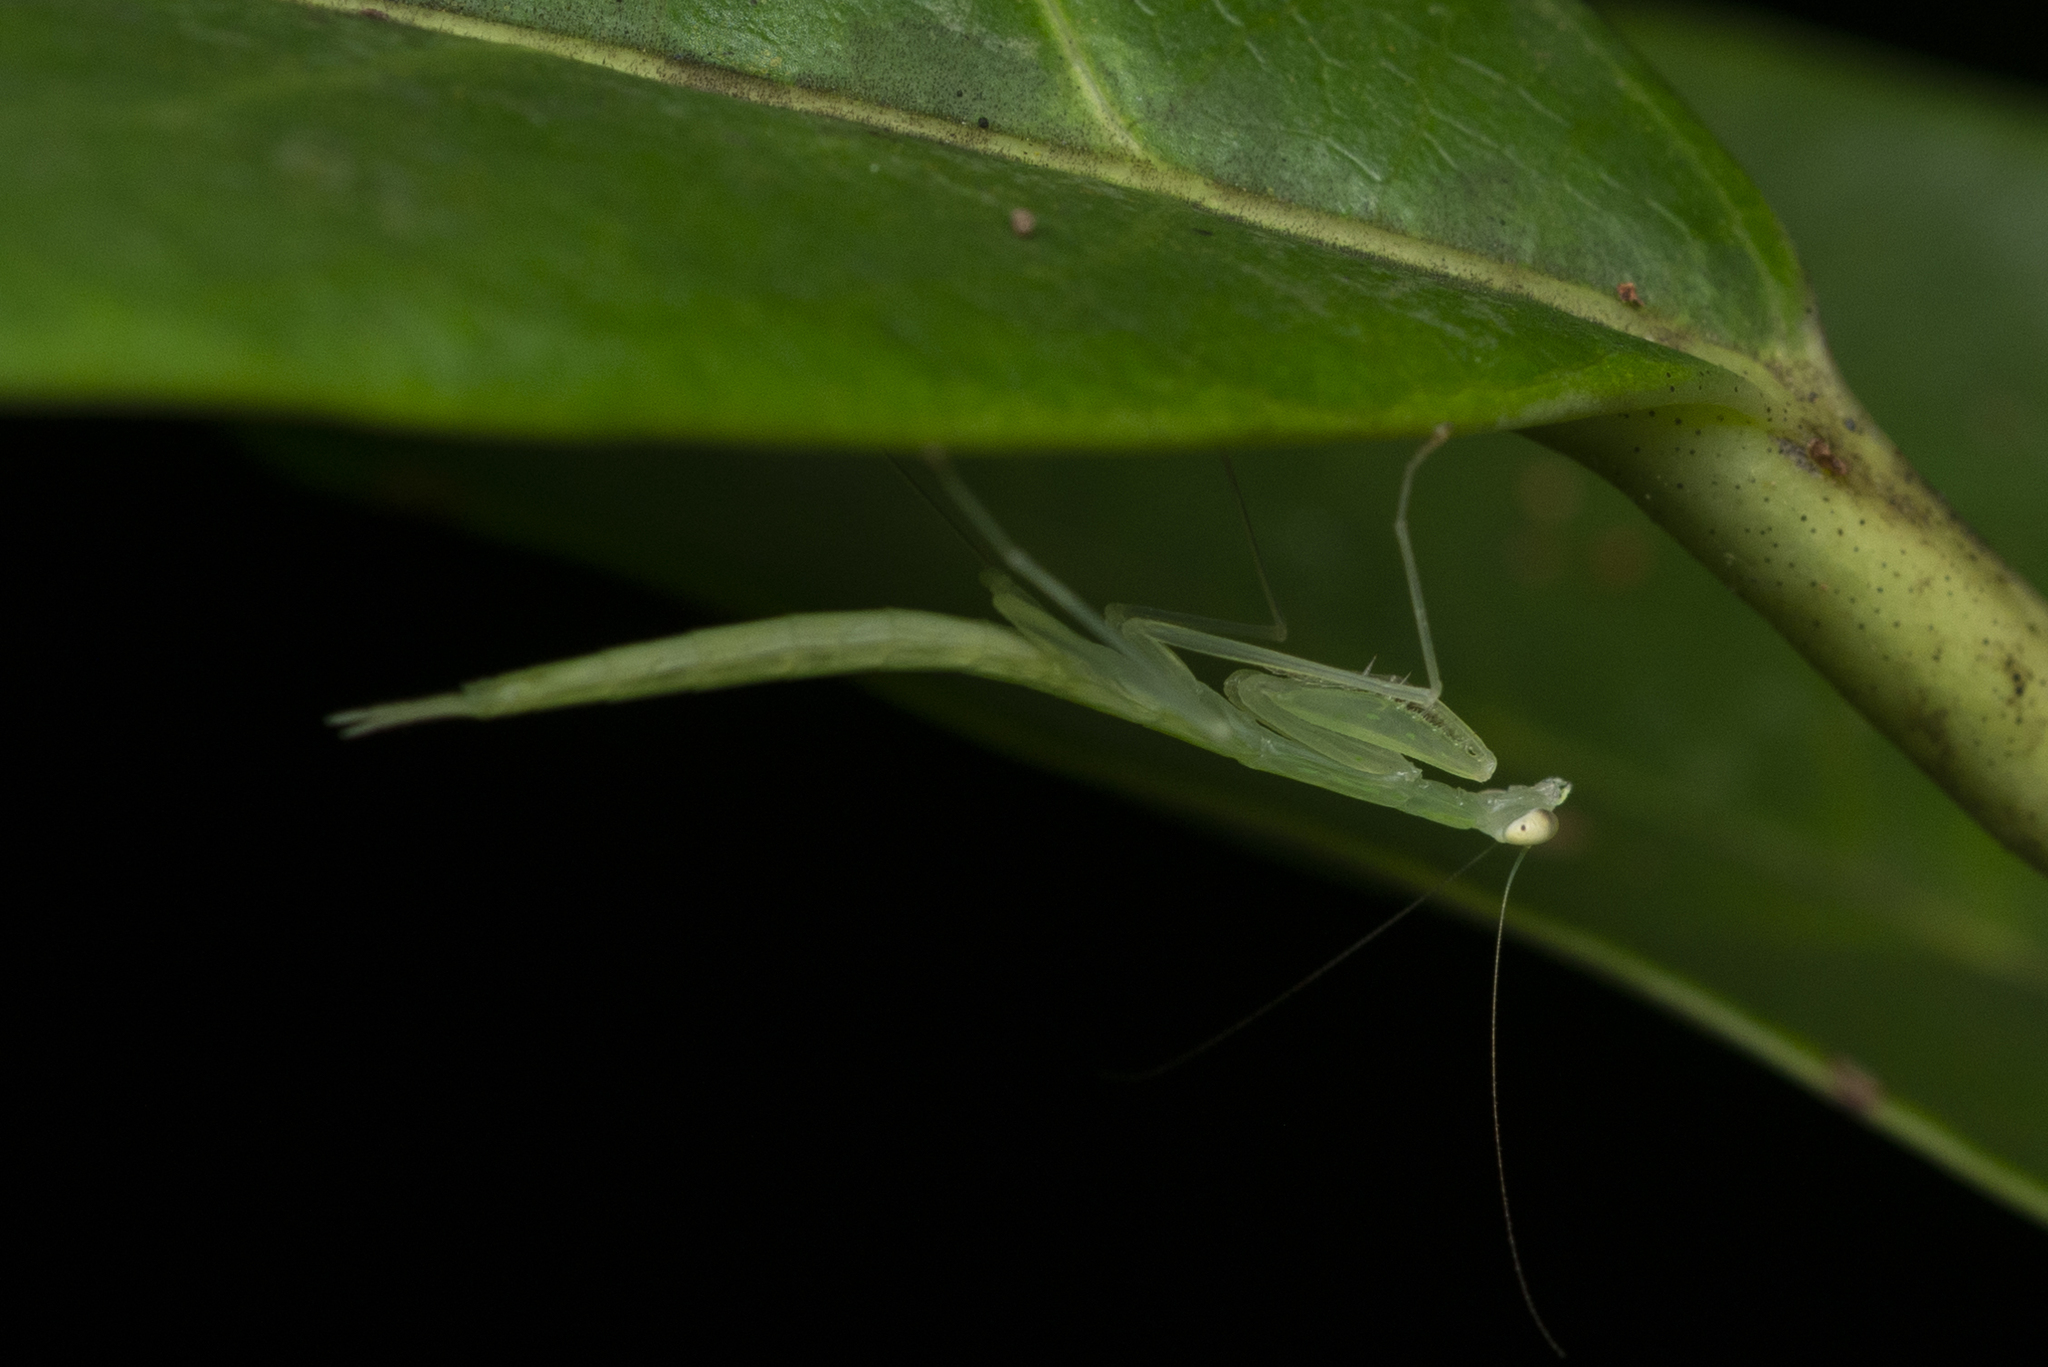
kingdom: Animalia
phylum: Arthropoda
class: Insecta
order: Mantodea
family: Nanomantidae
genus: Sinomantis
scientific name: Sinomantis denticulata
